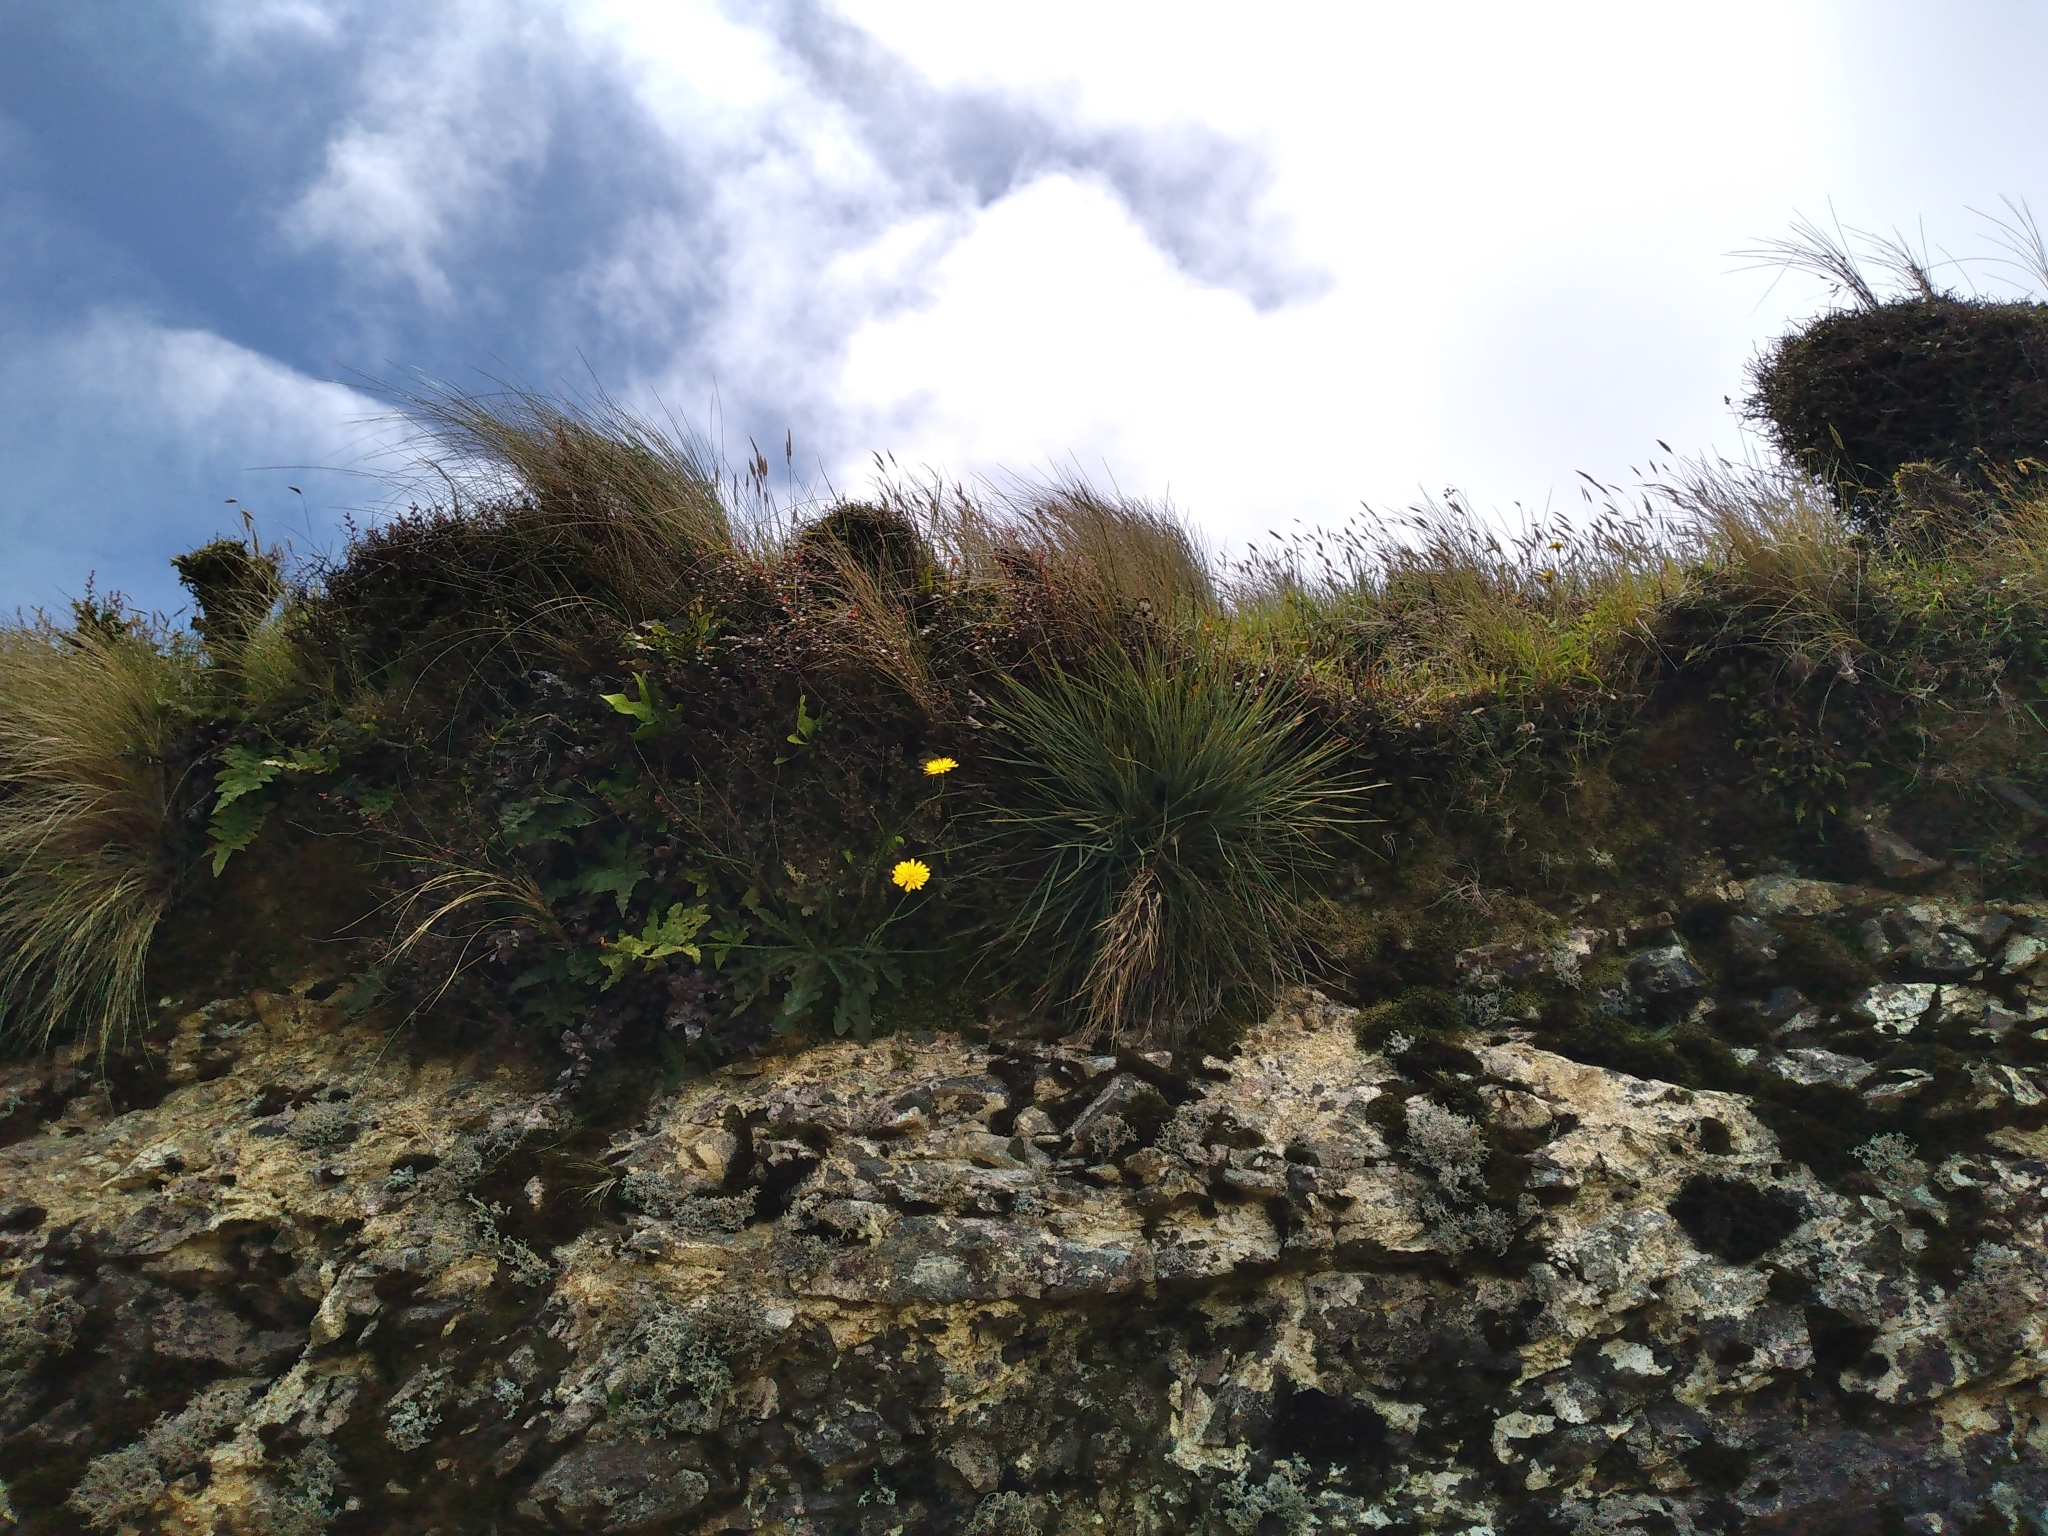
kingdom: Plantae
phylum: Tracheophyta
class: Magnoliopsida
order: Apiales
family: Apiaceae
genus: Aciphylla
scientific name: Aciphylla squarrosa
